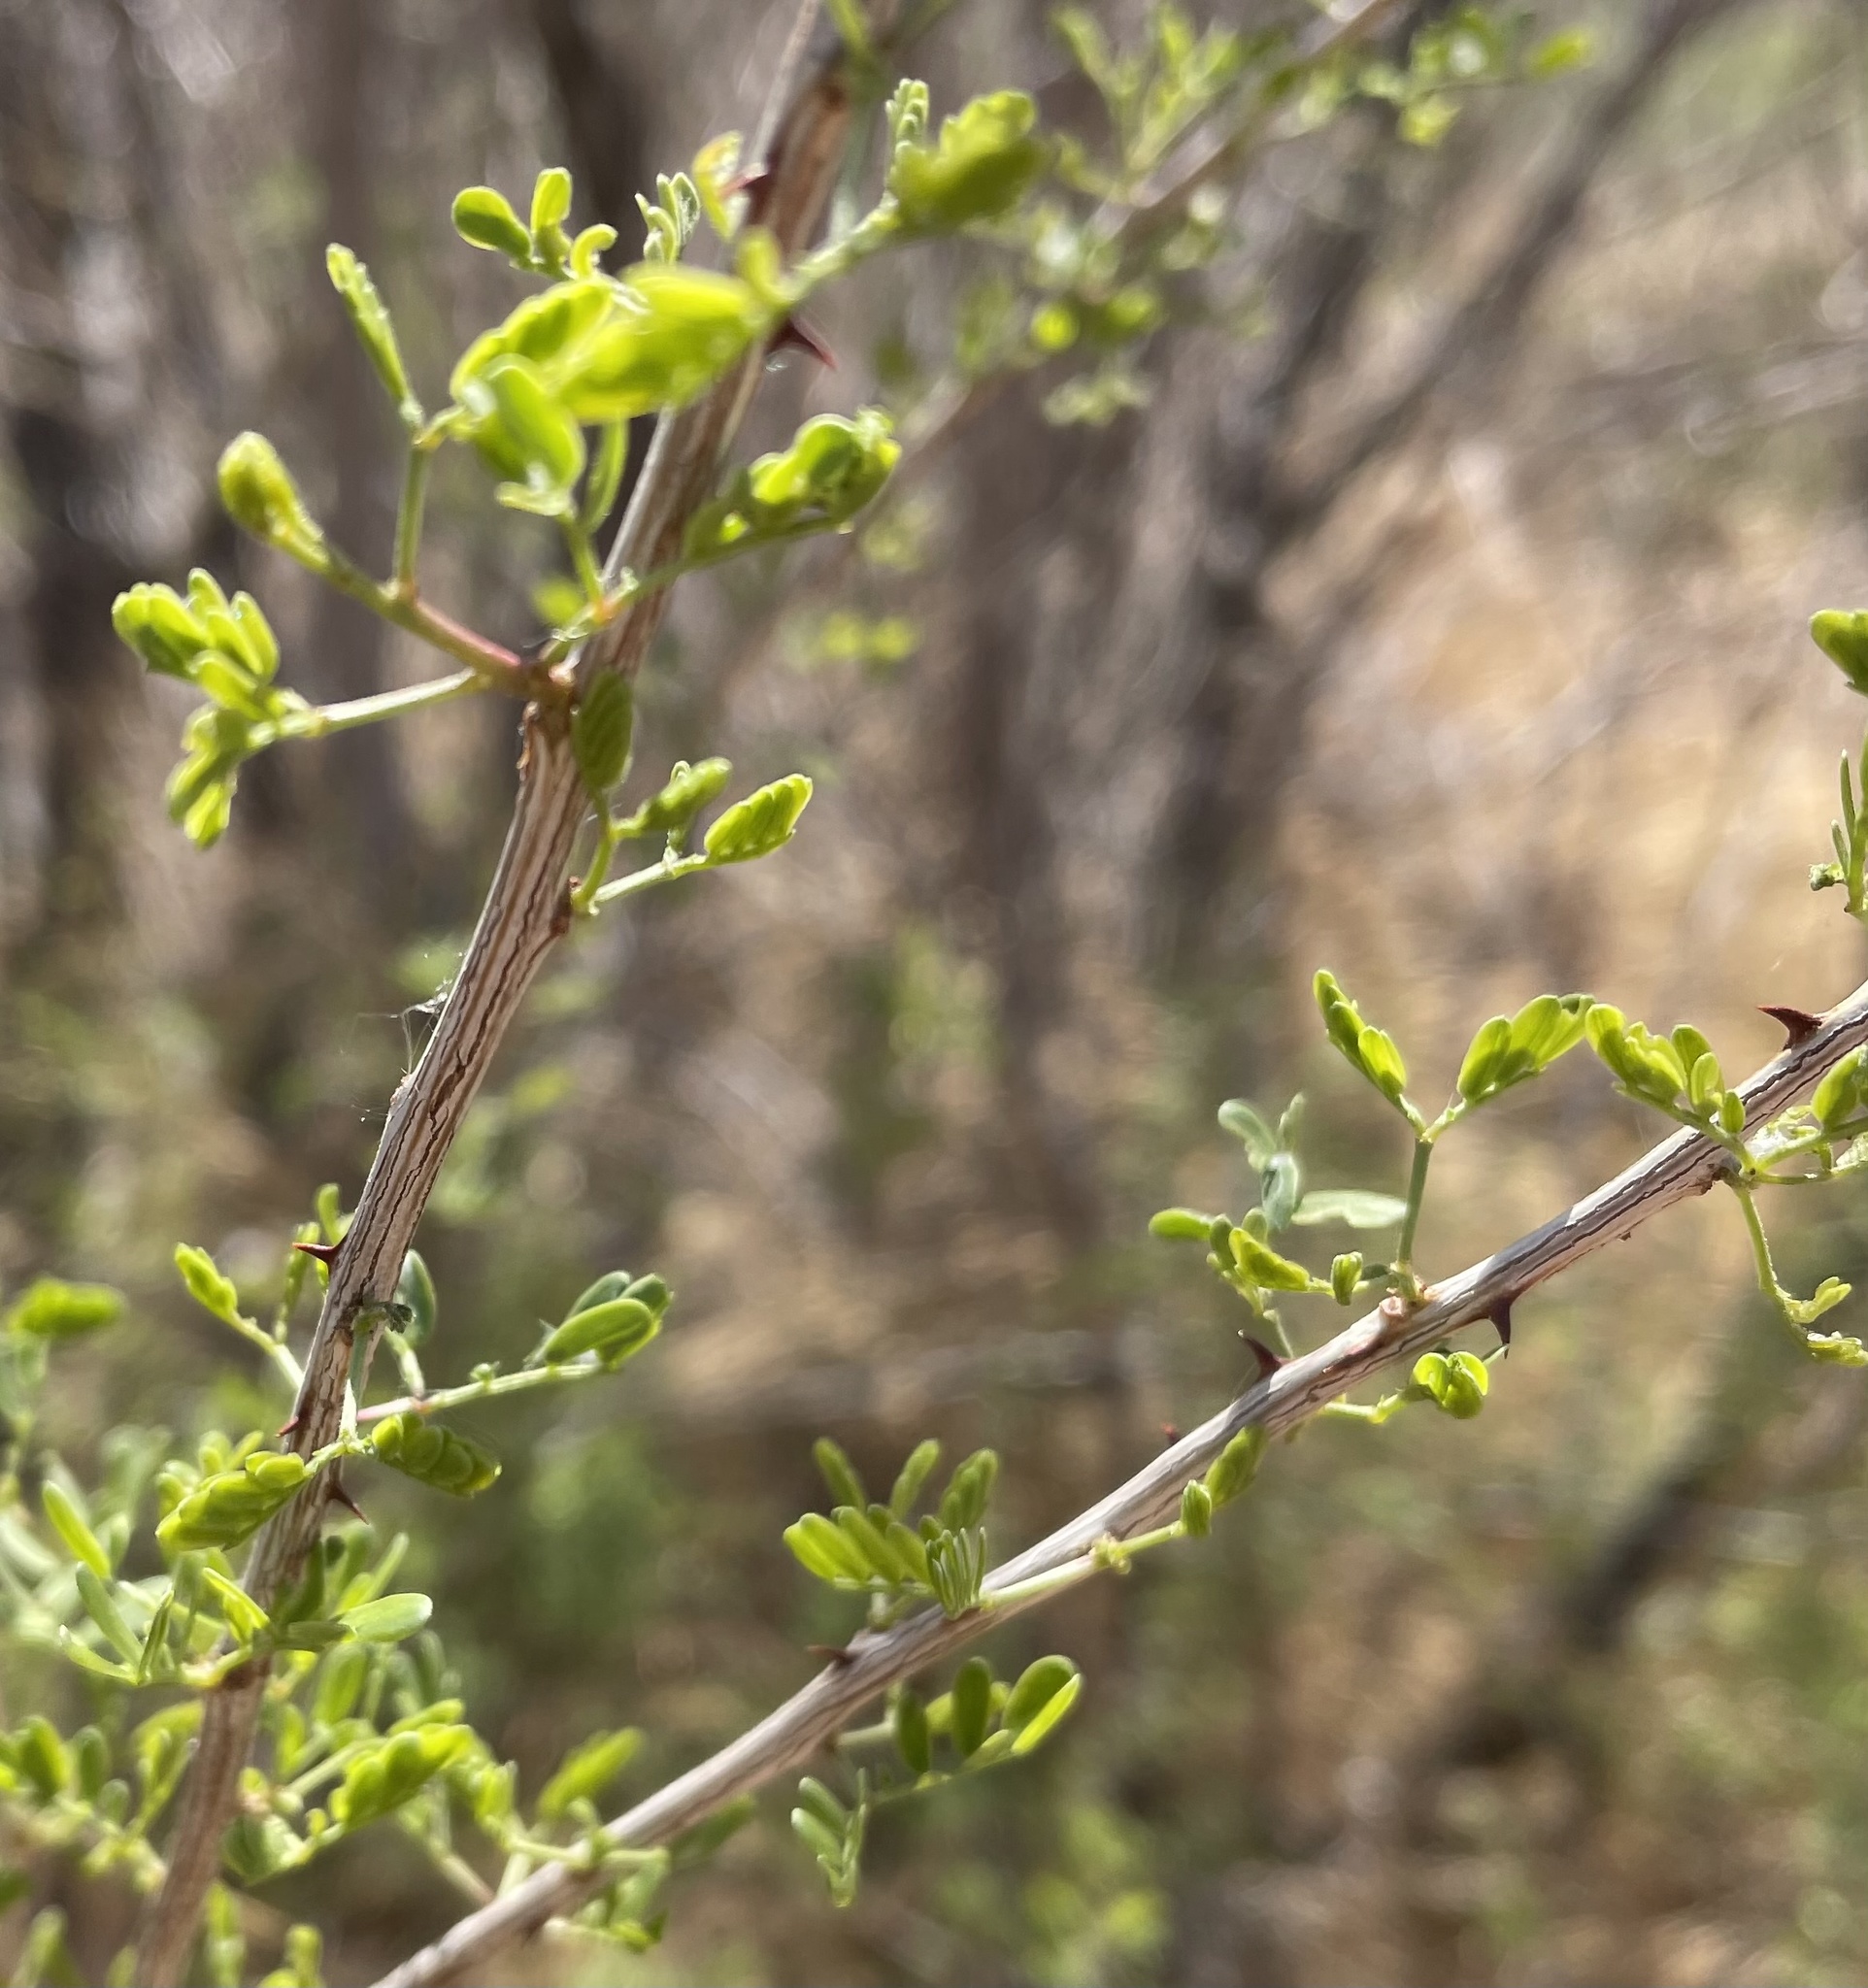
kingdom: Plantae
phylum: Tracheophyta
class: Magnoliopsida
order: Fabales
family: Fabaceae
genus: Senegalia
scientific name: Senegalia greggii
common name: Texas-mimosa
